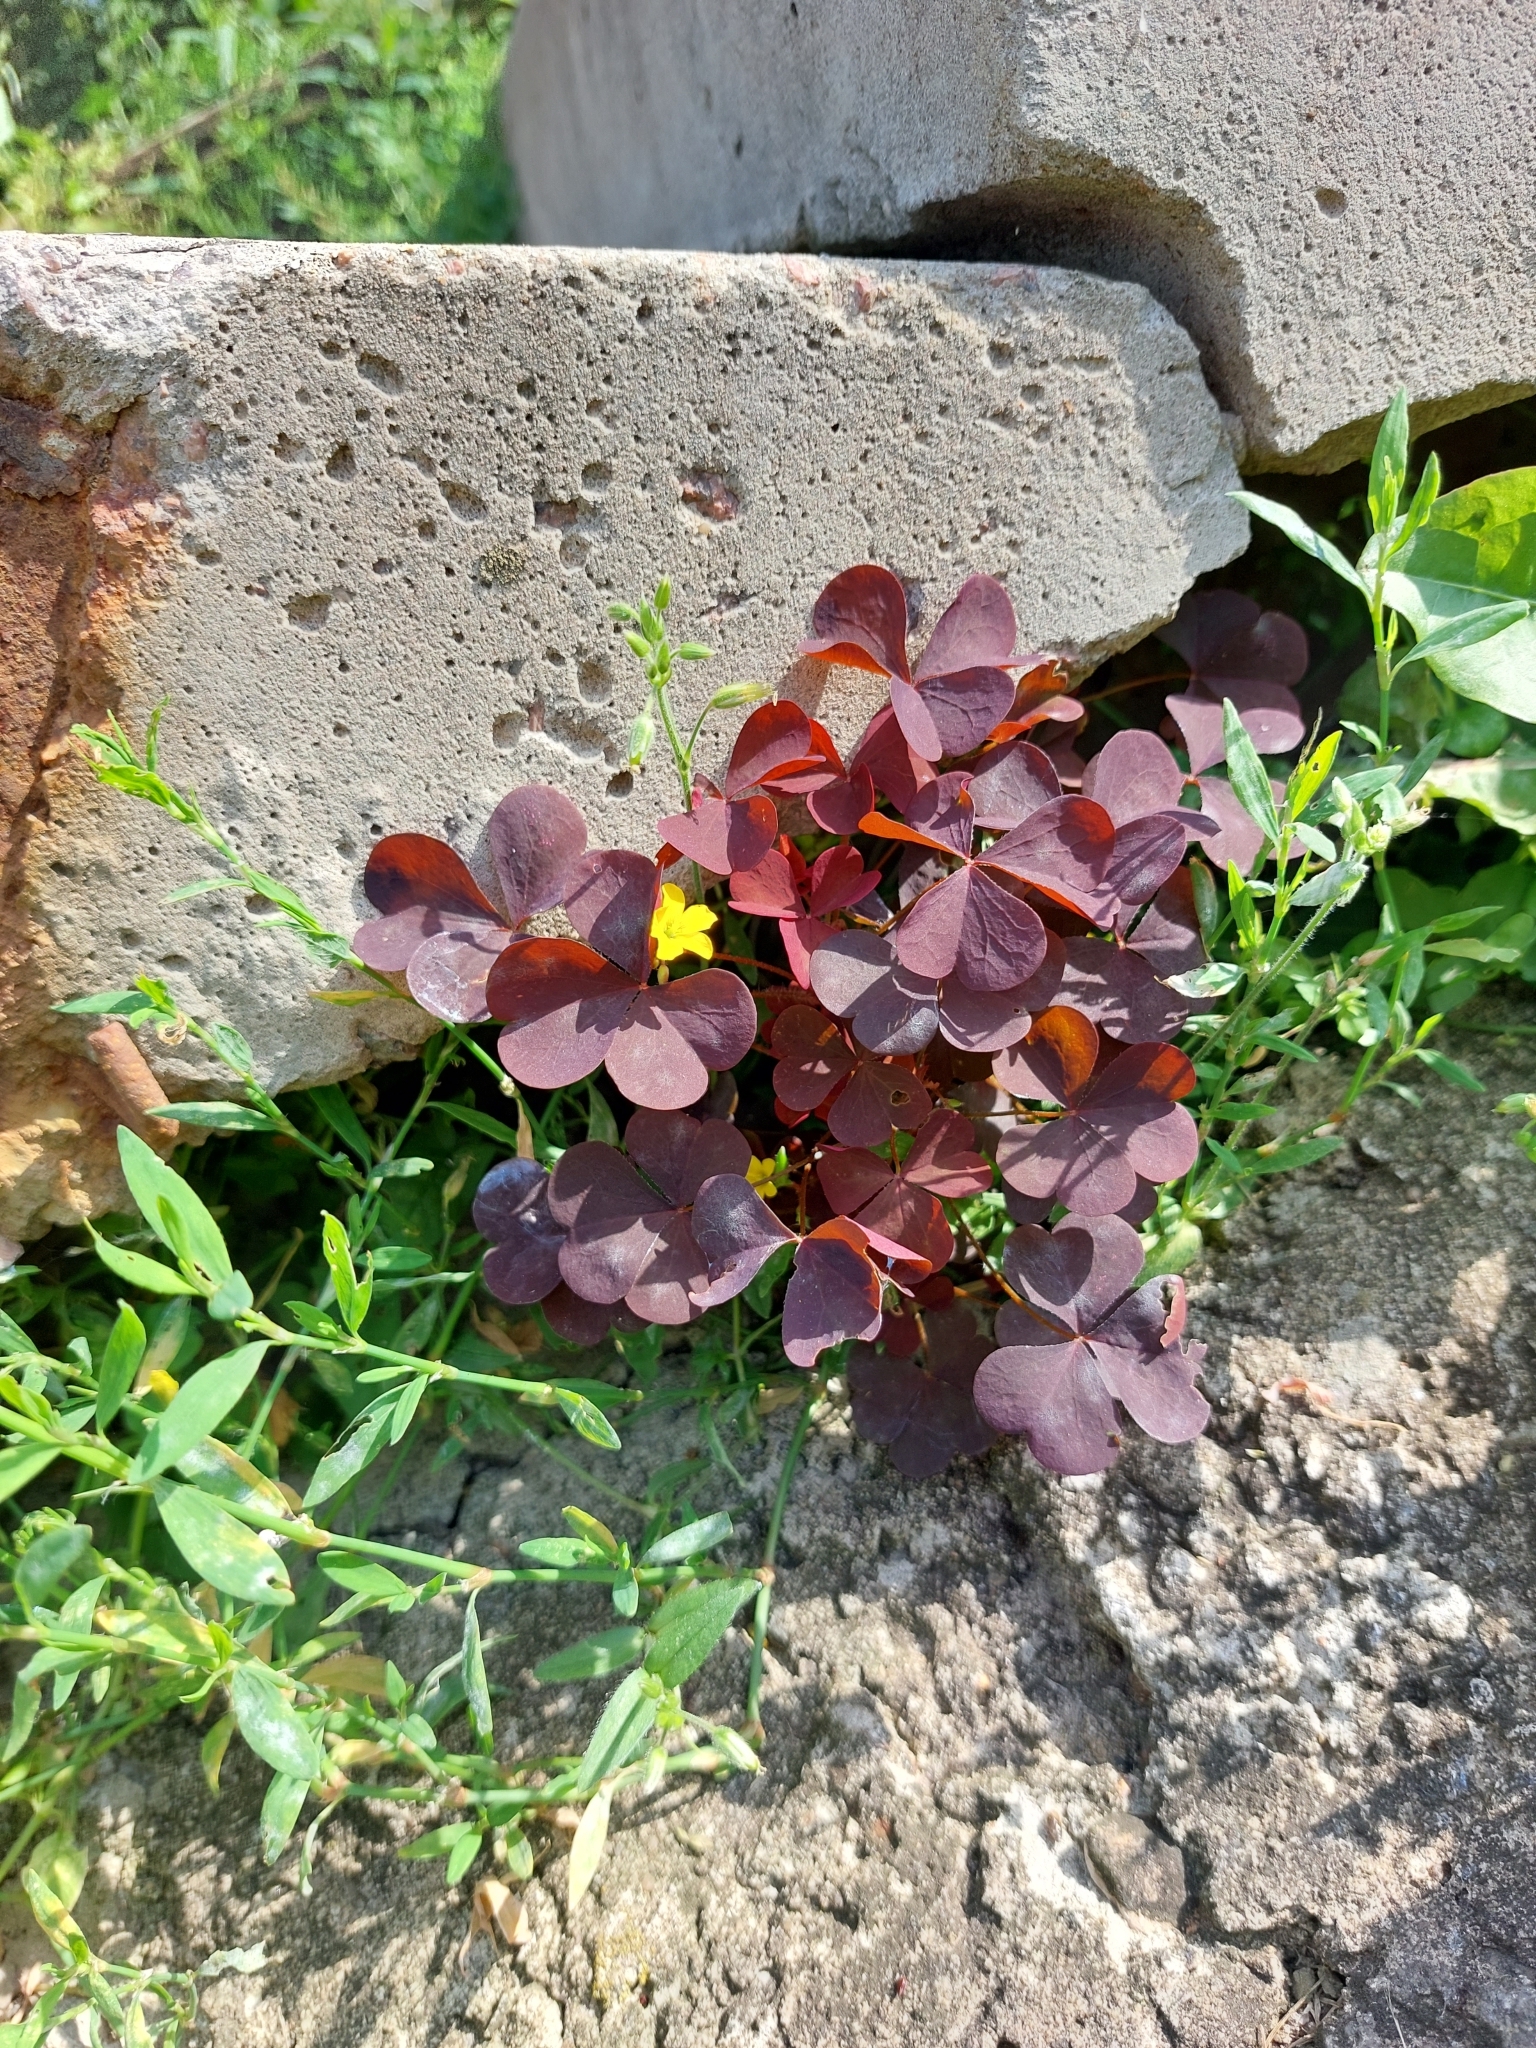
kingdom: Plantae
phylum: Tracheophyta
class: Magnoliopsida
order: Oxalidales
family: Oxalidaceae
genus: Oxalis
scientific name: Oxalis stricta
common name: Upright yellow-sorrel
